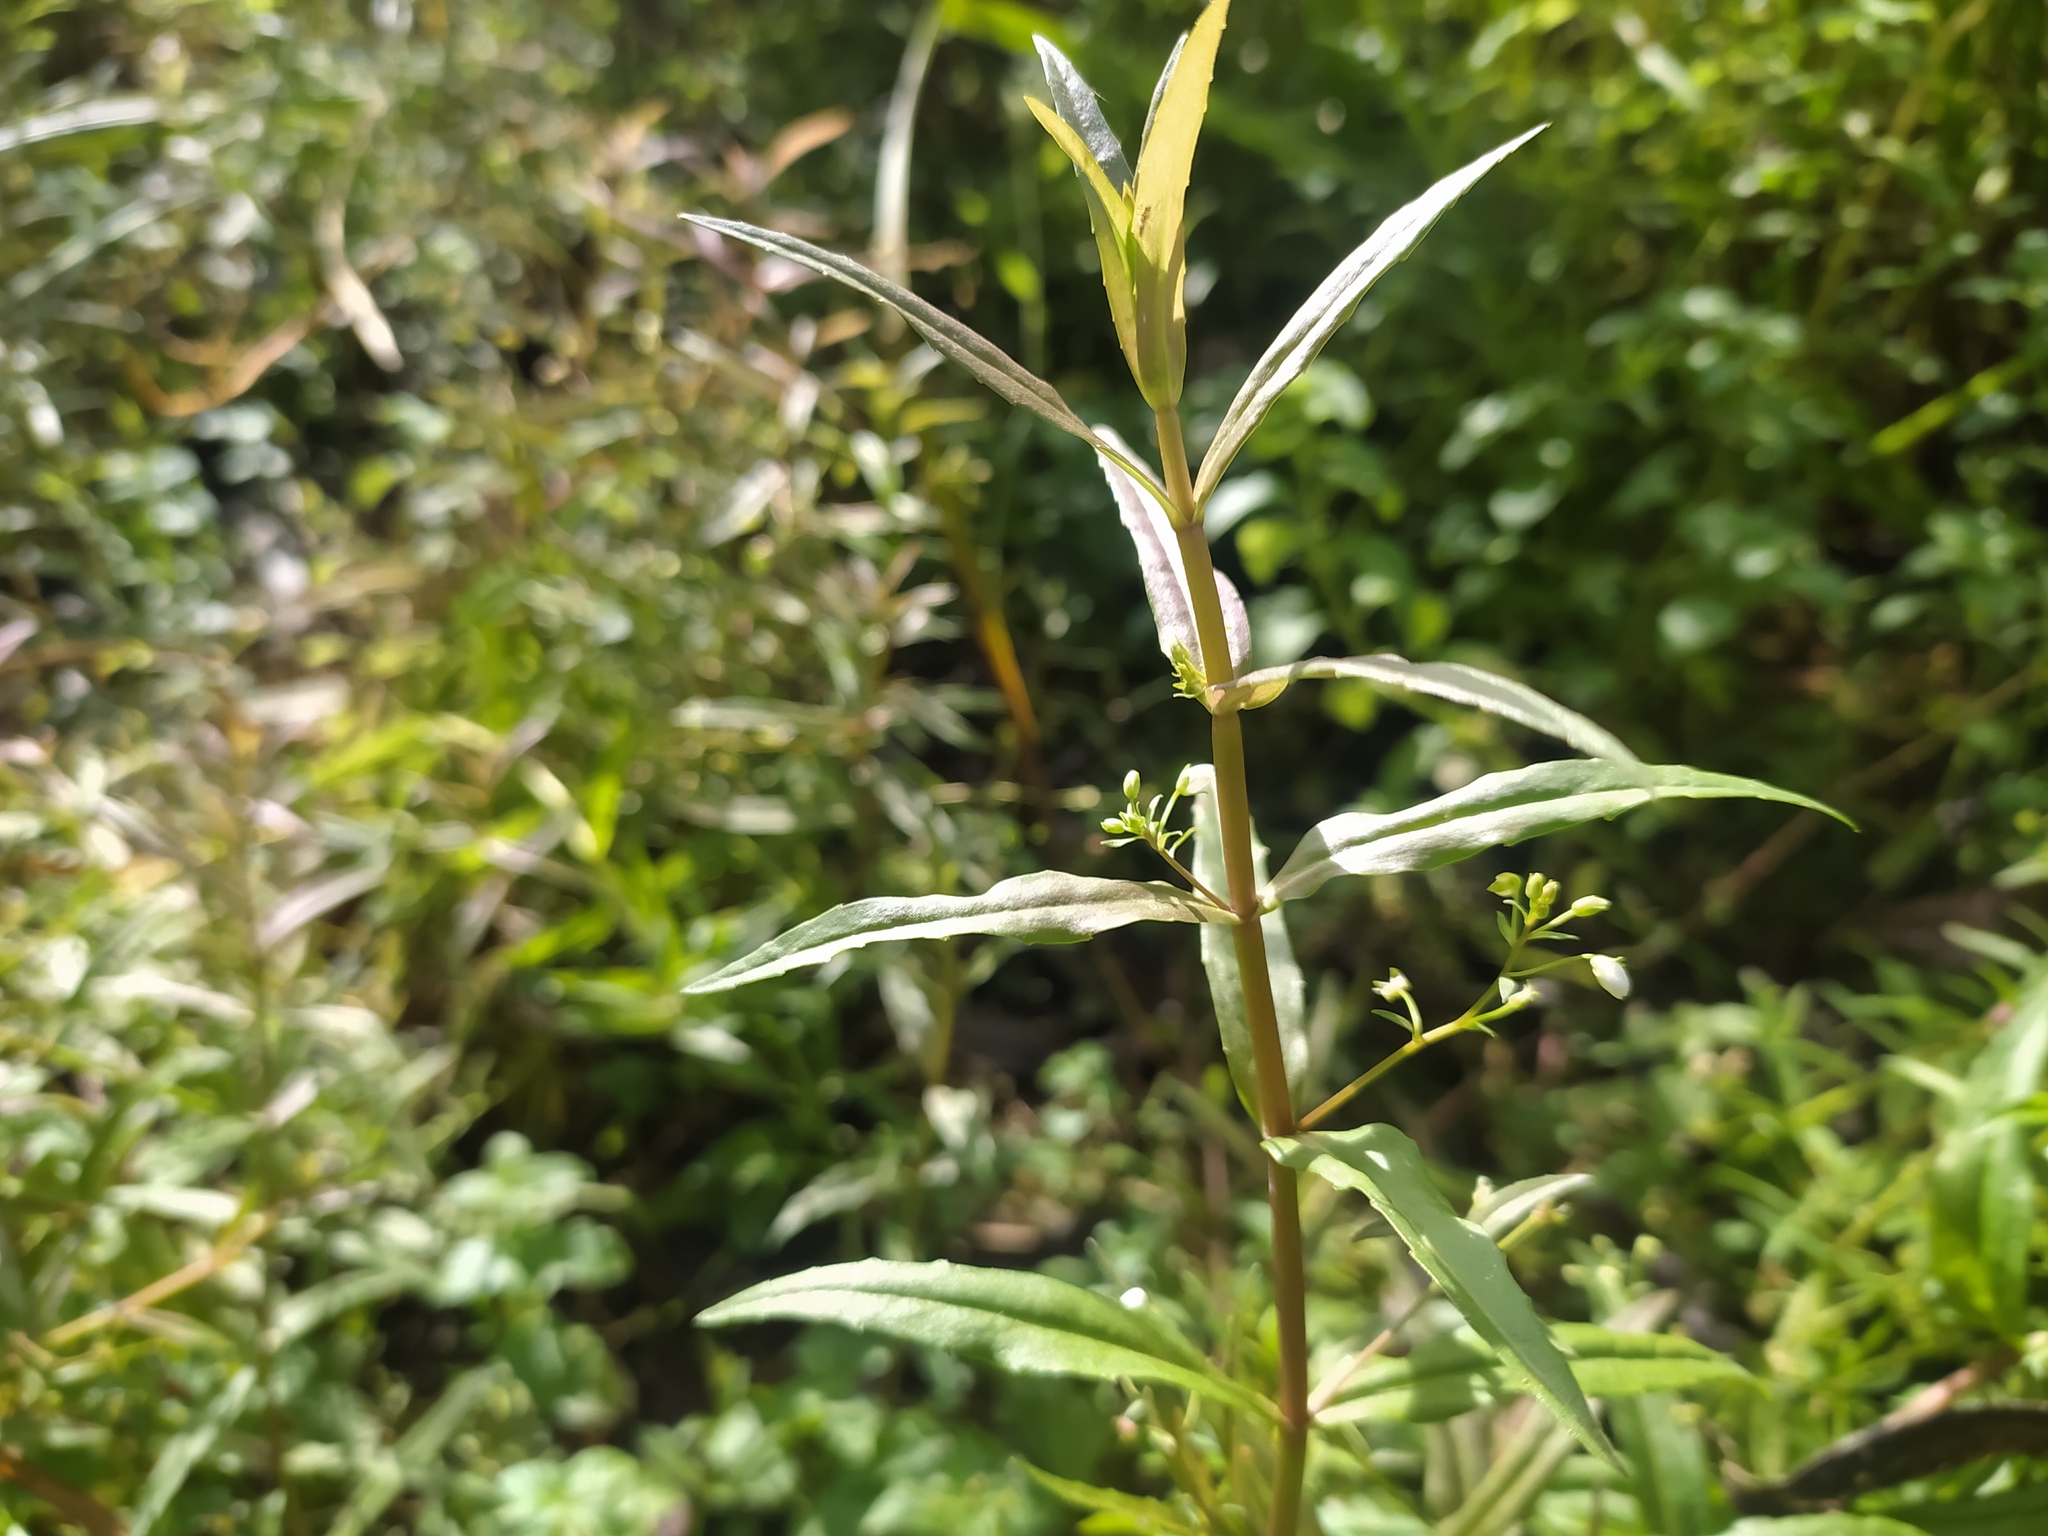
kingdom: Plantae
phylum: Tracheophyta
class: Magnoliopsida
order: Lamiales
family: Plantaginaceae
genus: Veronica
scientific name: Veronica scutellata
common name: Marsh speedwell
